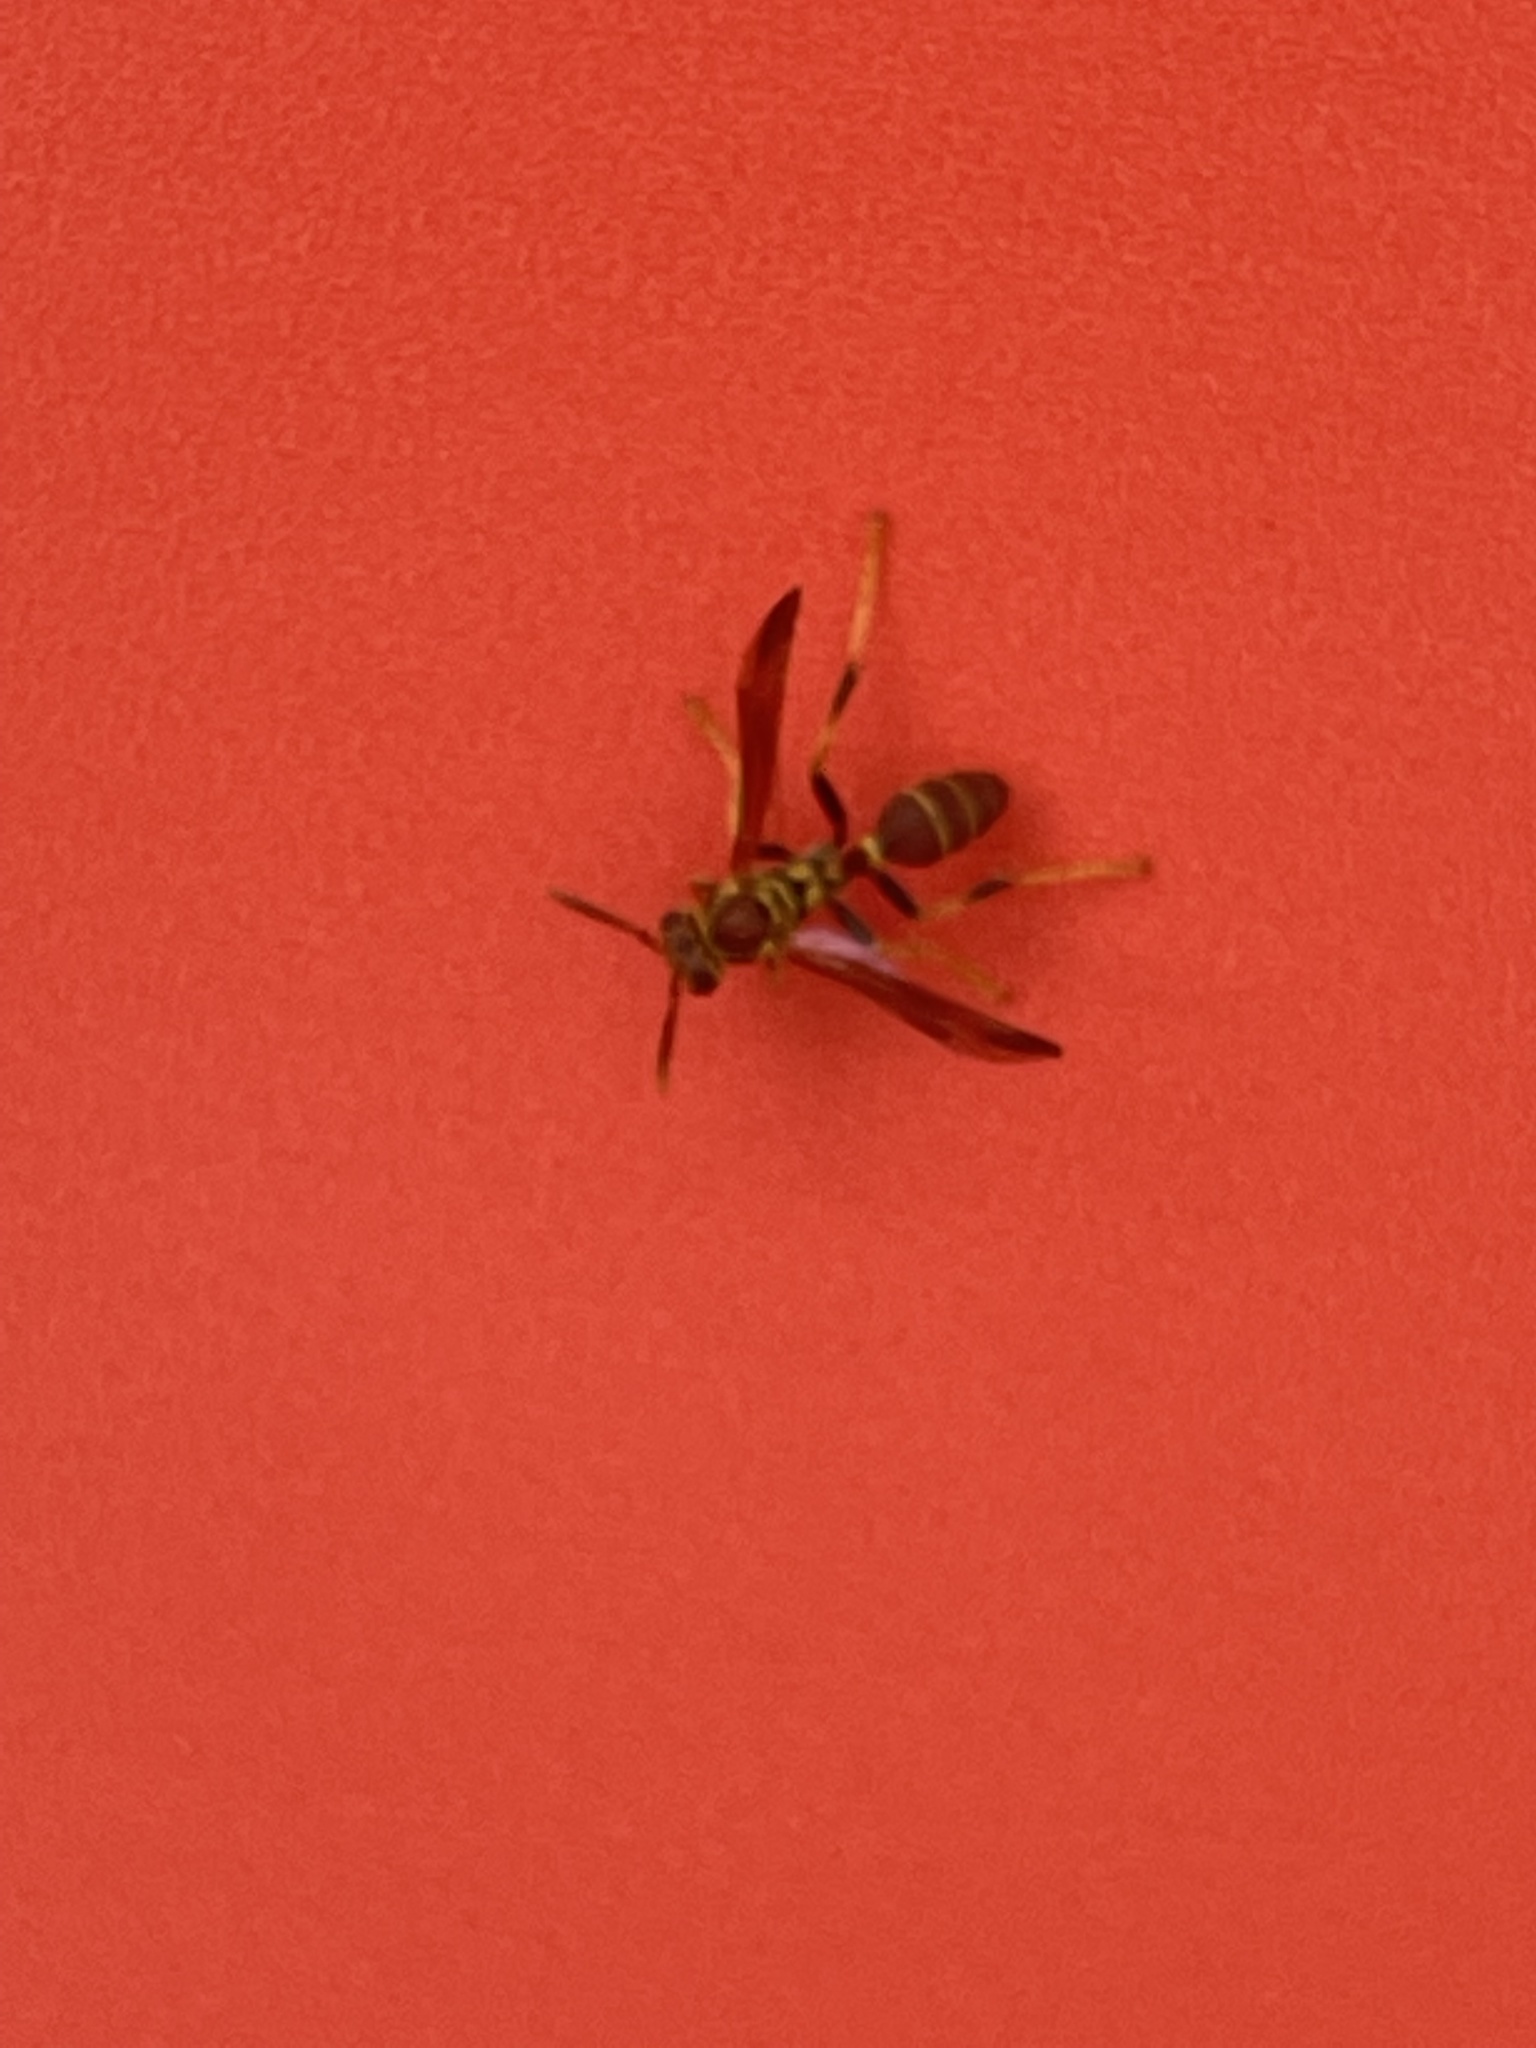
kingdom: Animalia
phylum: Arthropoda
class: Insecta
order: Hymenoptera
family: Vespidae
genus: Mischocyttarus
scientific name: Mischocyttarus mexicanus
